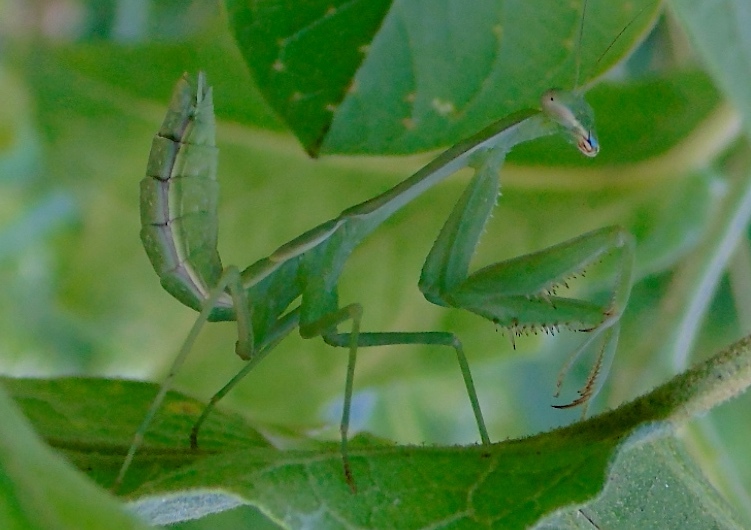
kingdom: Animalia
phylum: Arthropoda
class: Insecta
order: Mantodea
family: Mantidae
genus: Stagmomantis
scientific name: Stagmomantis limbata
